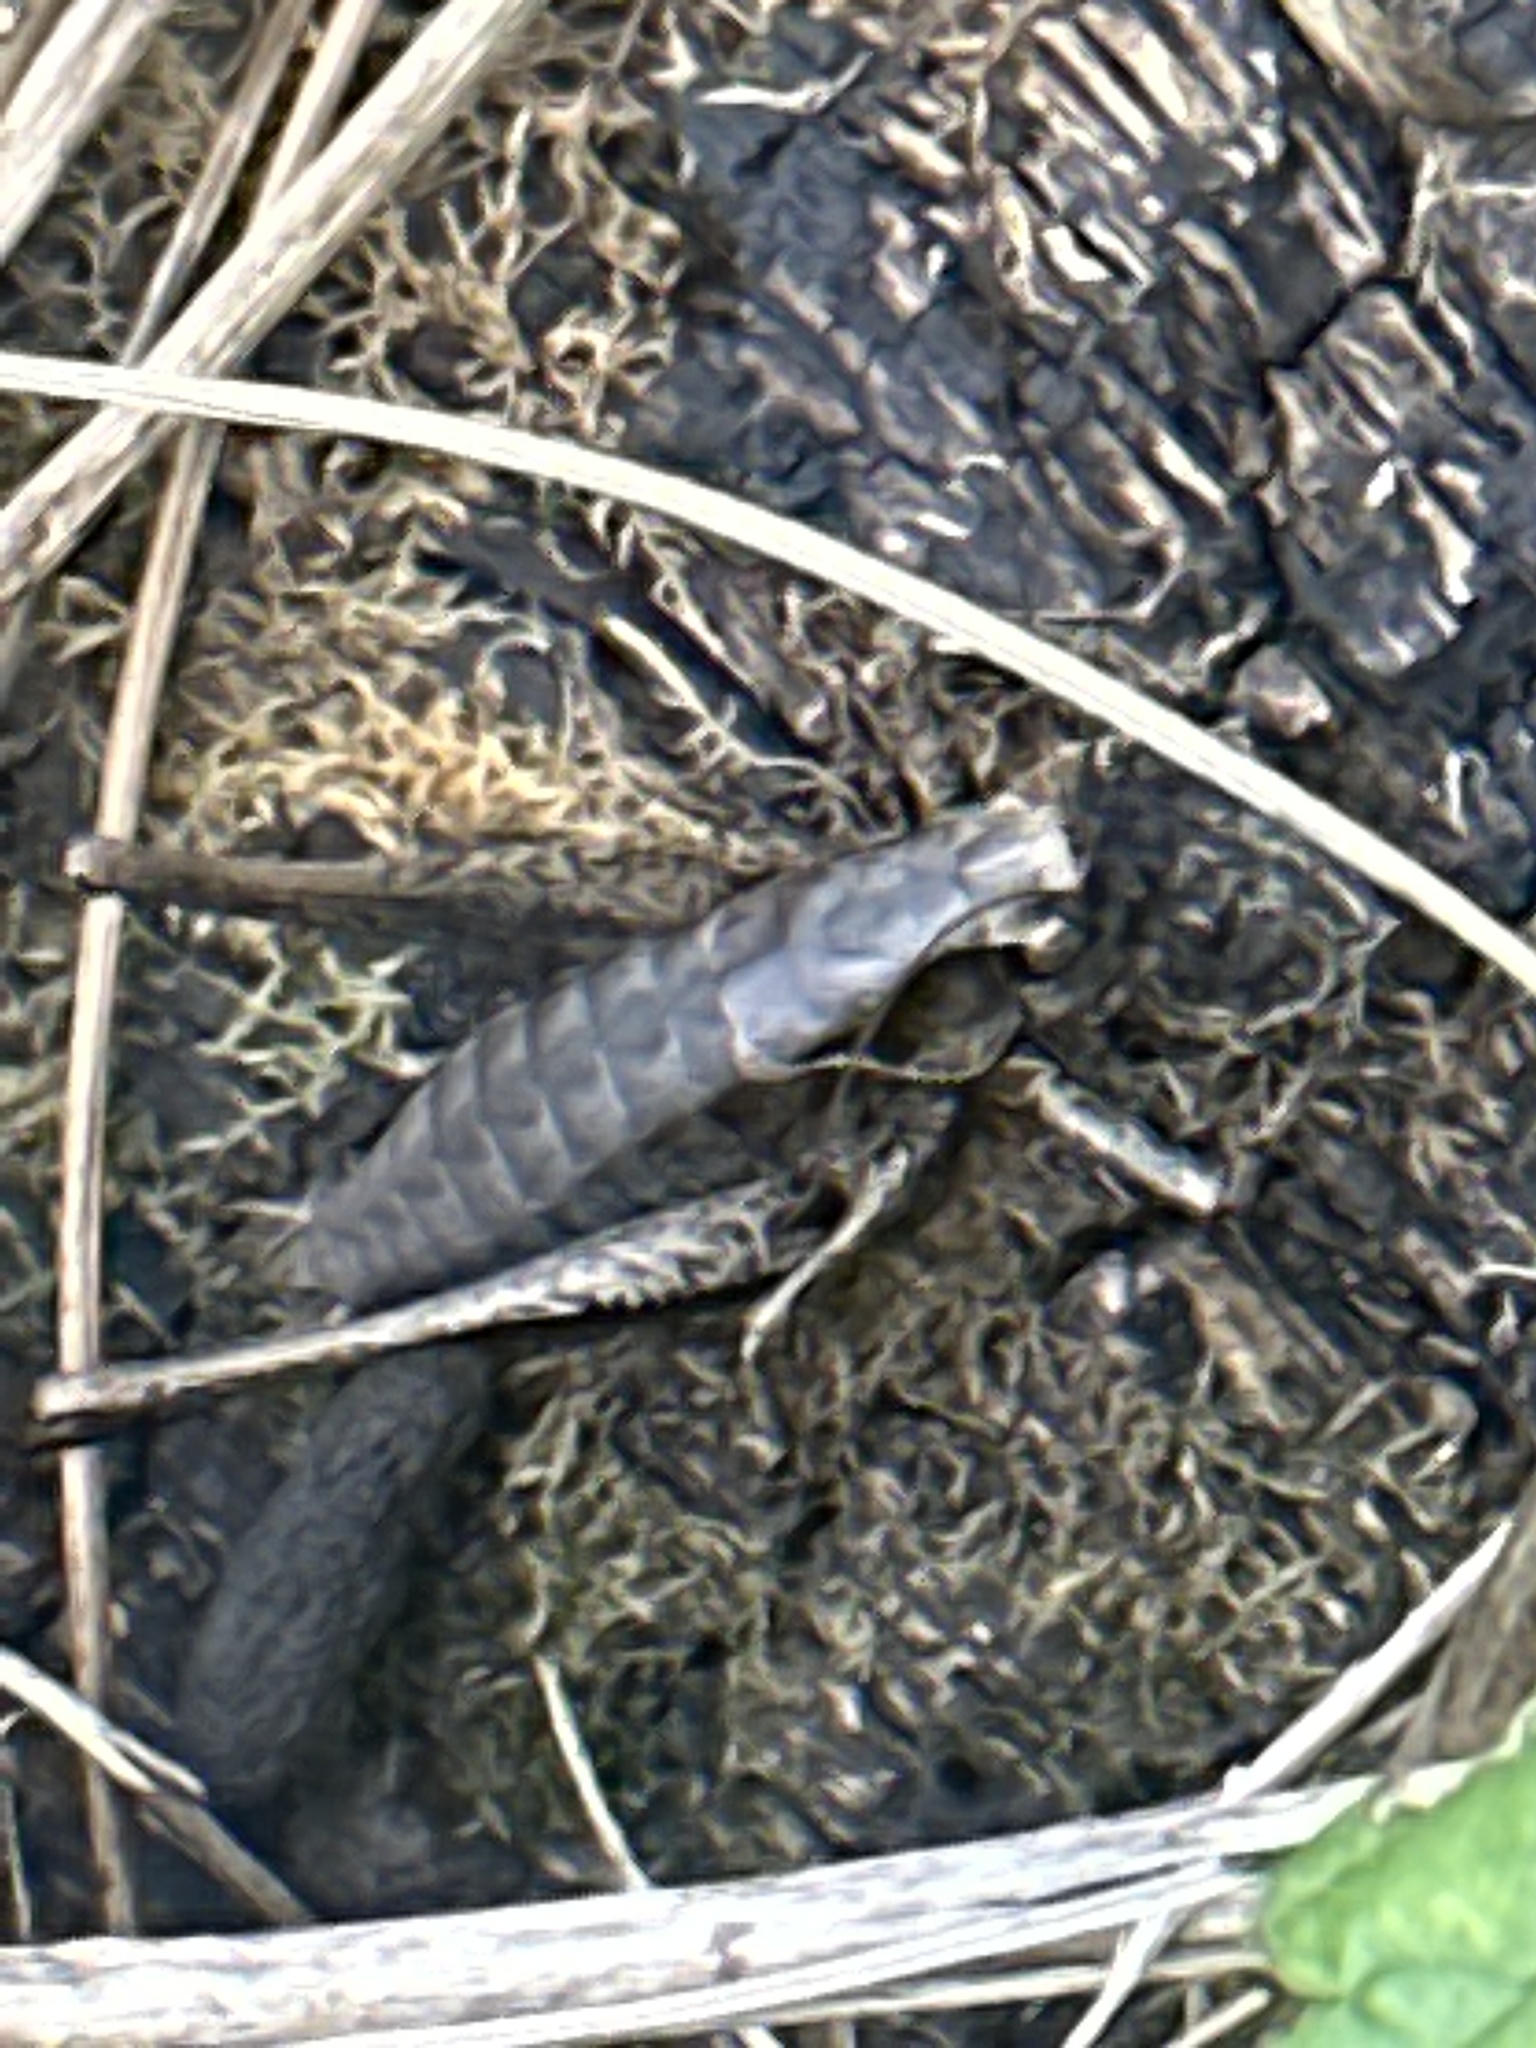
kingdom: Animalia
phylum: Arthropoda
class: Insecta
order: Orthoptera
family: Tettigoniidae
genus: Pholidoptera
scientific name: Pholidoptera griseoaptera
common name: Dark bush-cricket
